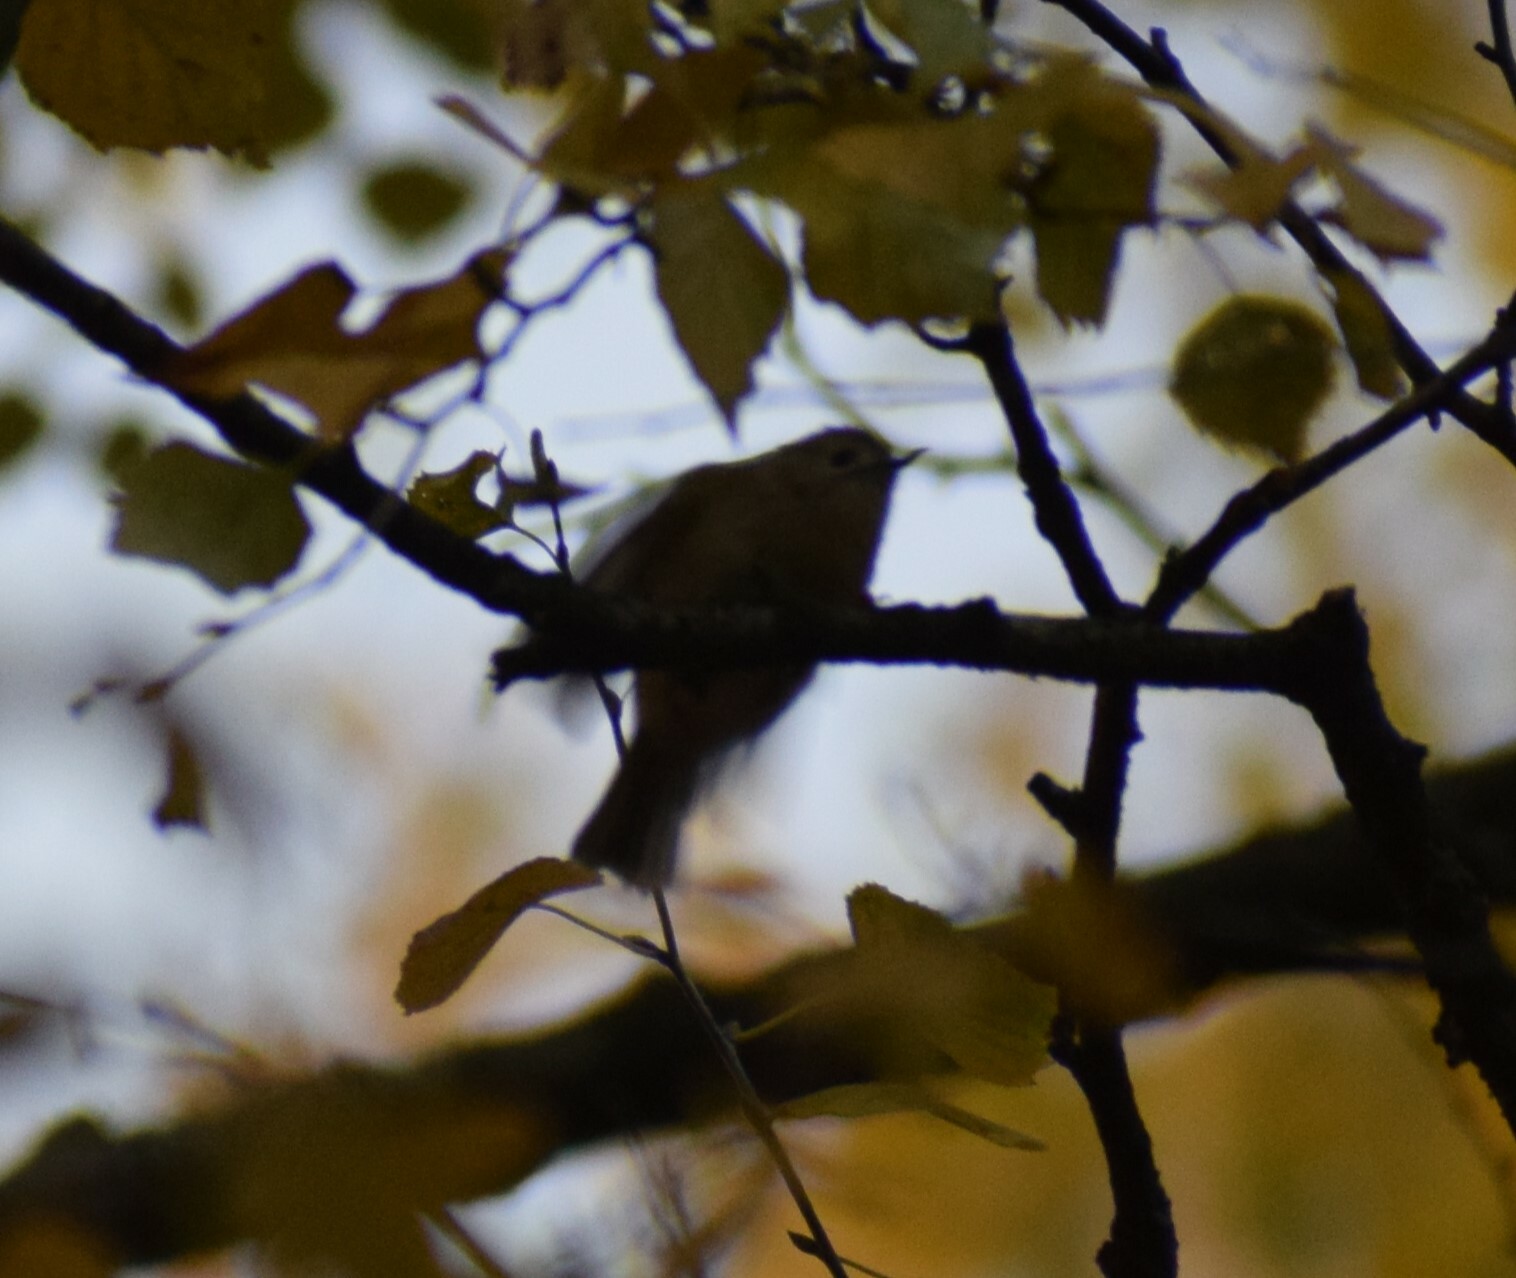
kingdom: Animalia
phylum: Chordata
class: Aves
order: Passeriformes
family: Regulidae
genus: Regulus
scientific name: Regulus regulus
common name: Goldcrest
